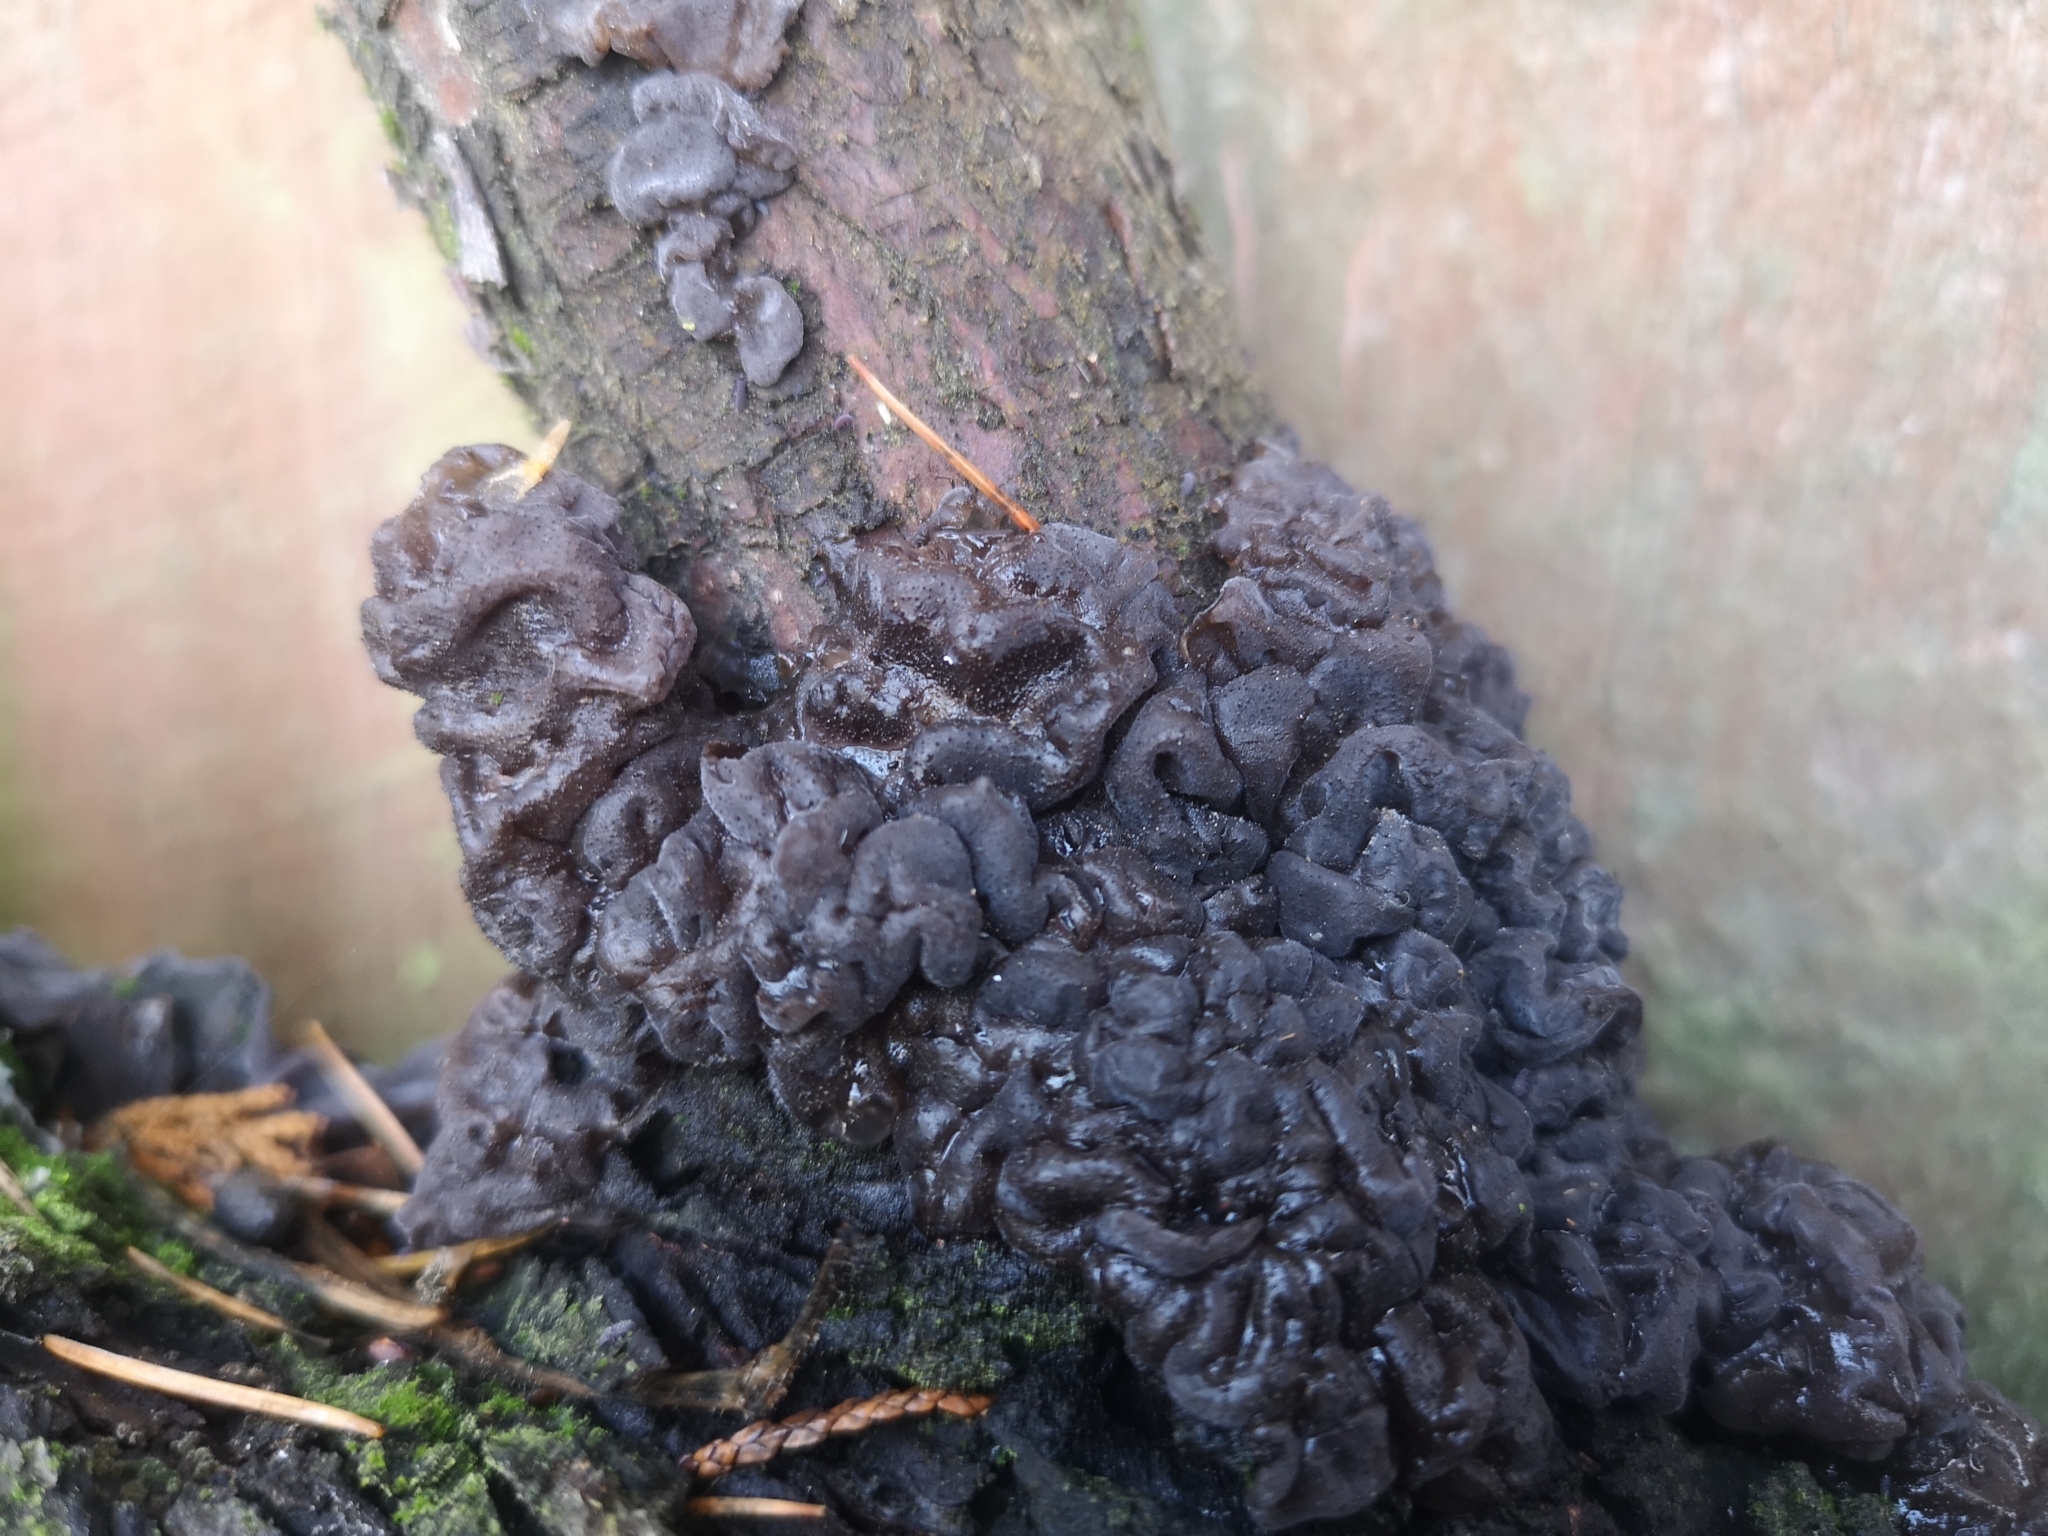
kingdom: Fungi
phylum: Basidiomycota
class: Agaricomycetes
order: Auriculariales
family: Auriculariaceae
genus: Tremellochaete
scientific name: Tremellochaete
